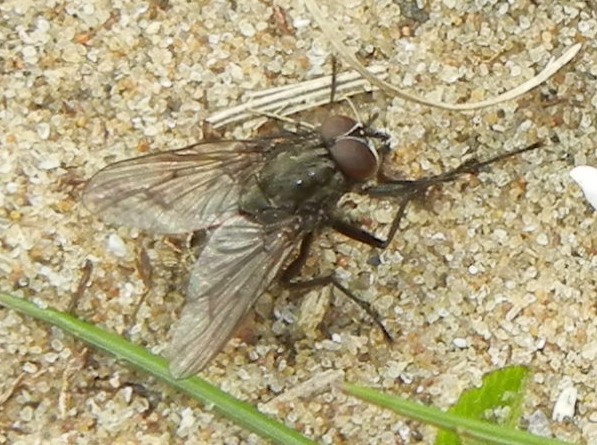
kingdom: Animalia
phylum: Arthropoda
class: Insecta
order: Diptera
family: Muscidae
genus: Helina
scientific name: Helina evecta
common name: Muscid fly
